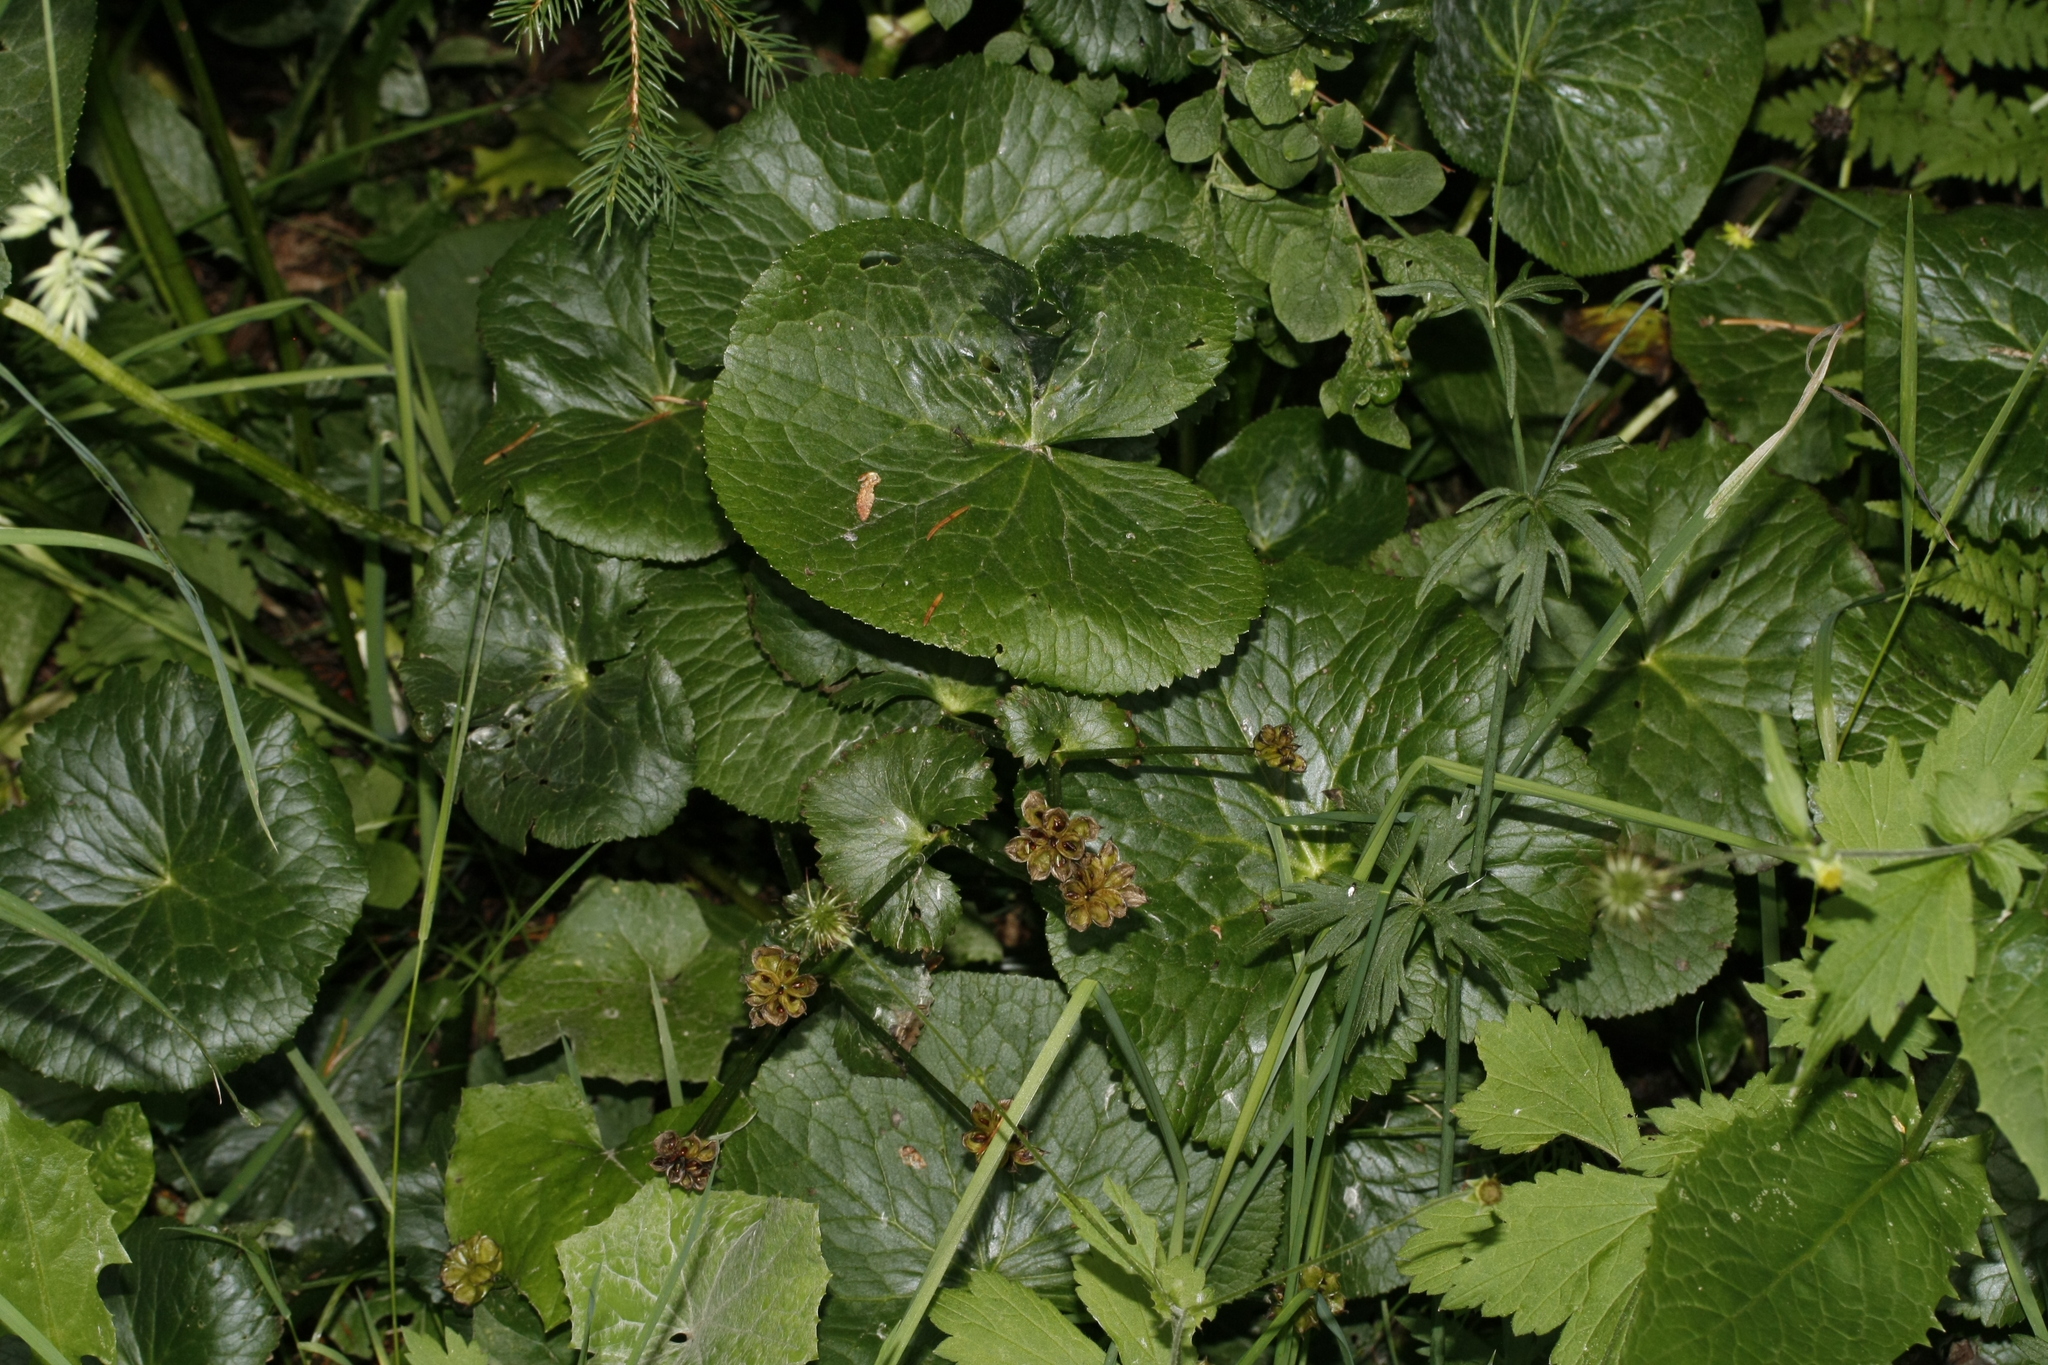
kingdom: Plantae
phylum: Tracheophyta
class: Magnoliopsida
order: Ranunculales
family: Ranunculaceae
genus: Caltha
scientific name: Caltha palustris
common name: Marsh marigold
